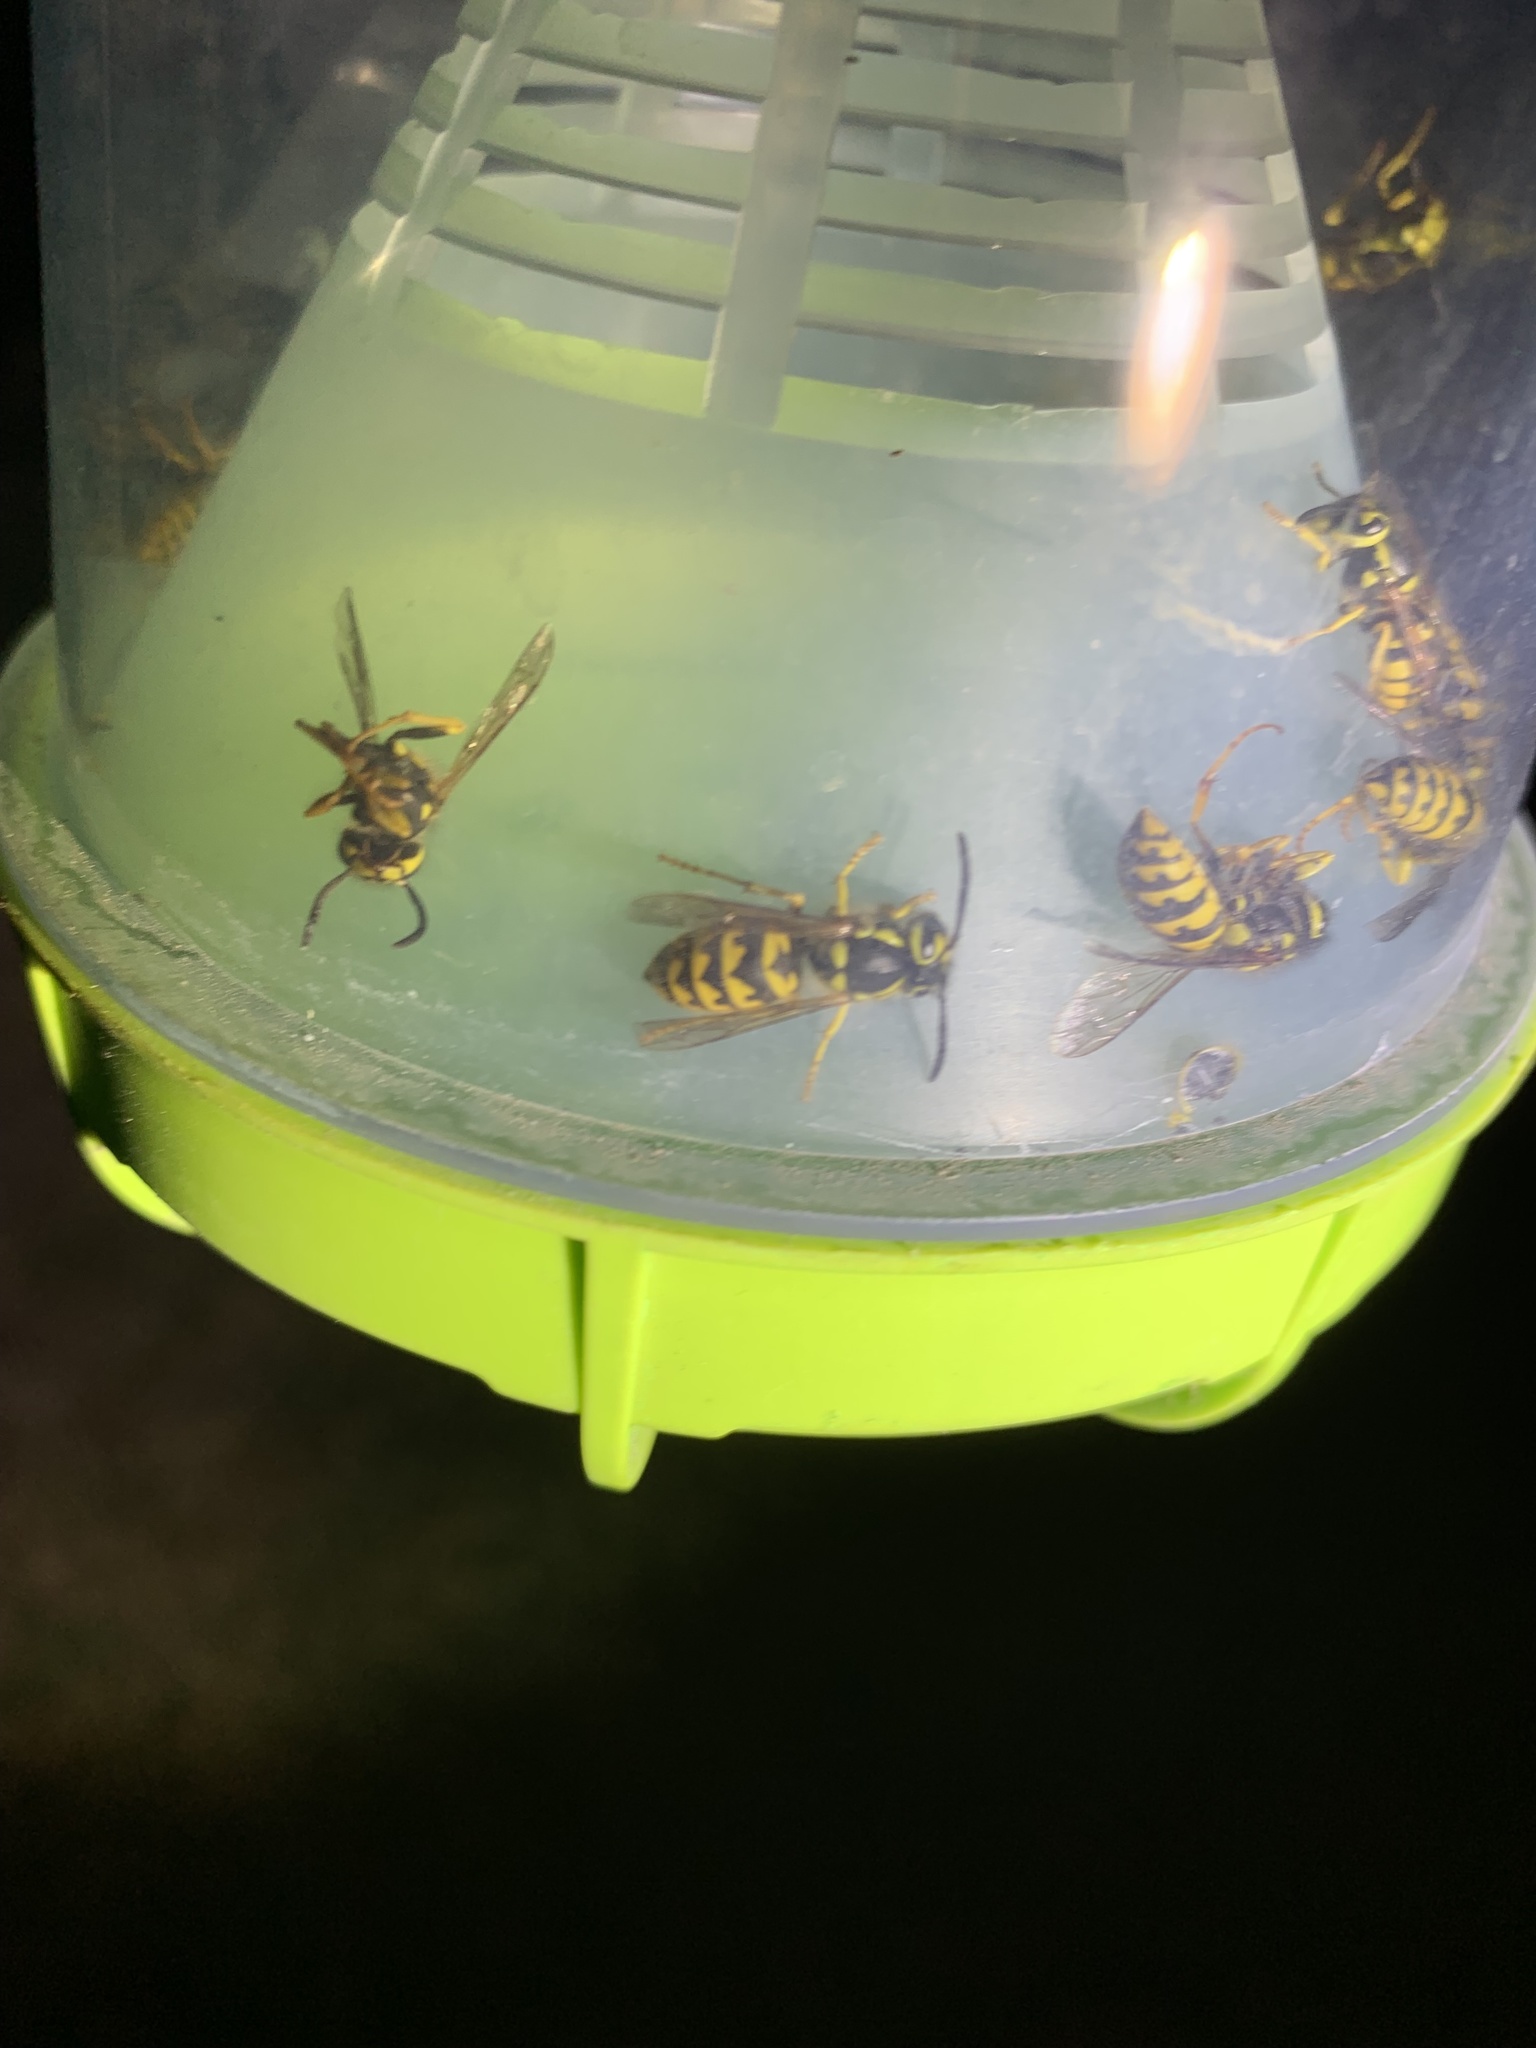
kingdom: Animalia
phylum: Arthropoda
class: Insecta
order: Hymenoptera
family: Vespidae
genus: Vespula
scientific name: Vespula pensylvanica
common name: Western yellowjacket
